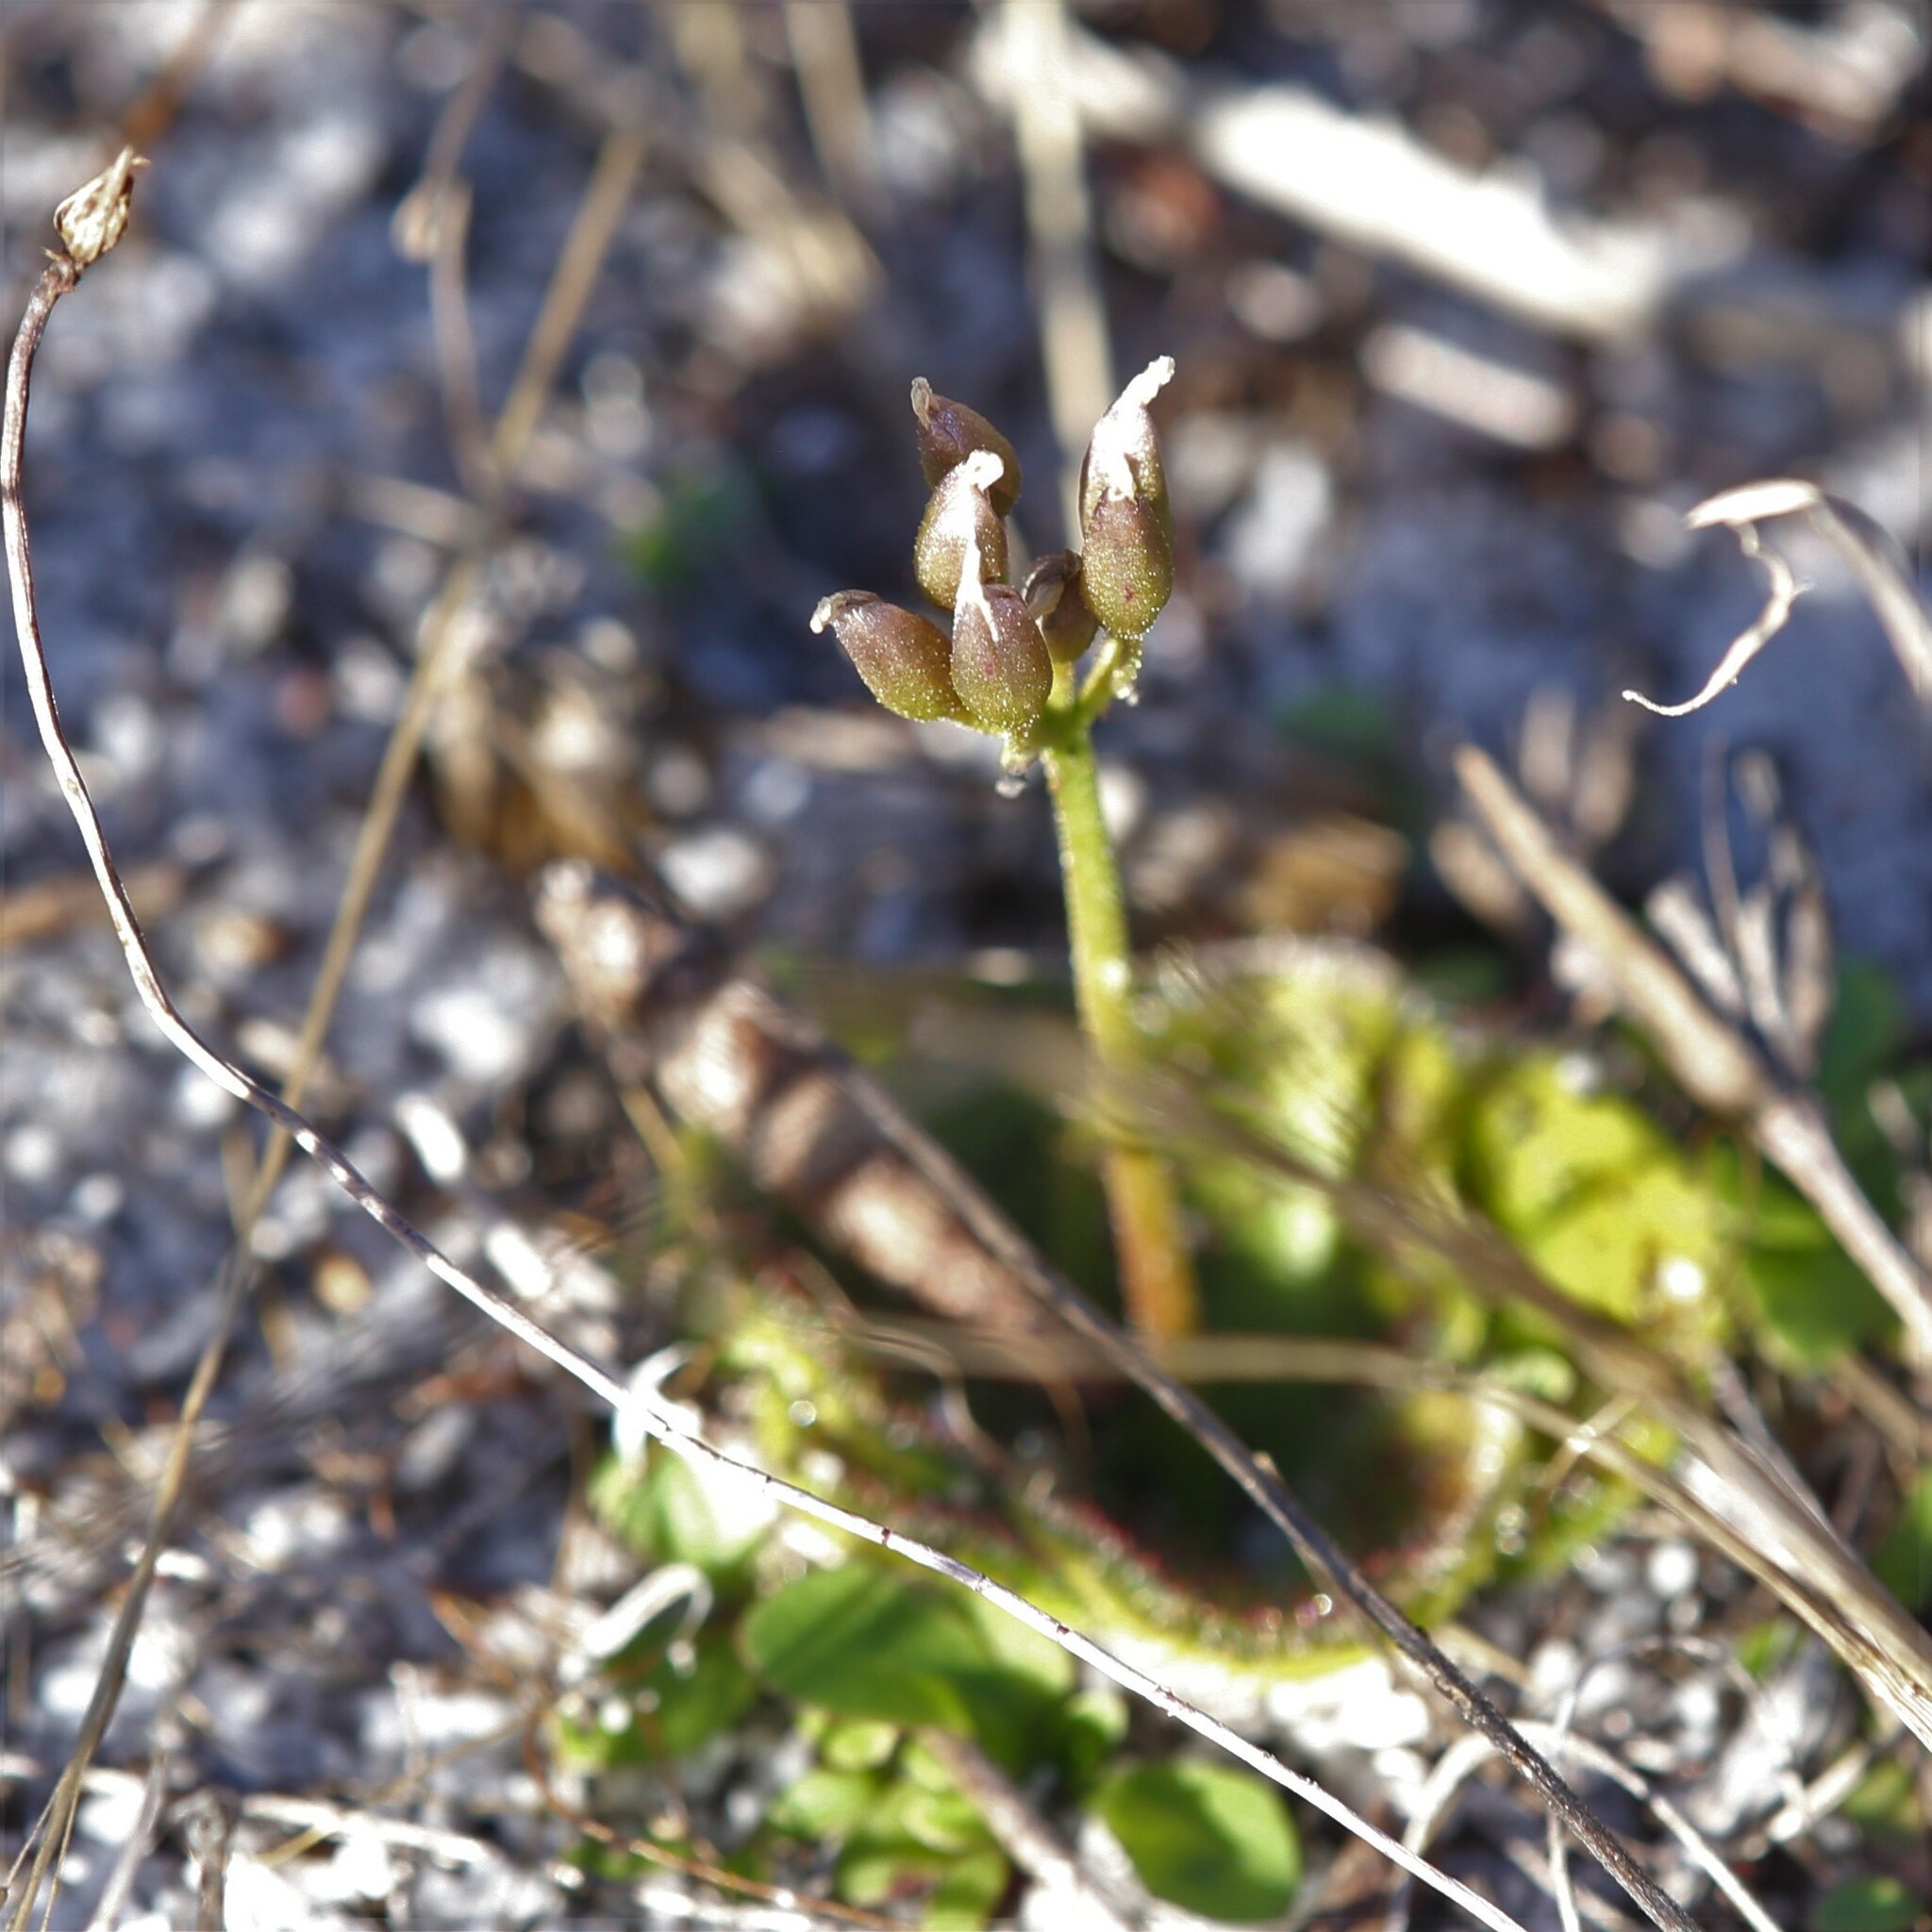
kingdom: Plantae
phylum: Tracheophyta
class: Magnoliopsida
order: Caryophyllales
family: Droseraceae
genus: Drosera
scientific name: Drosera erythrorhiza
